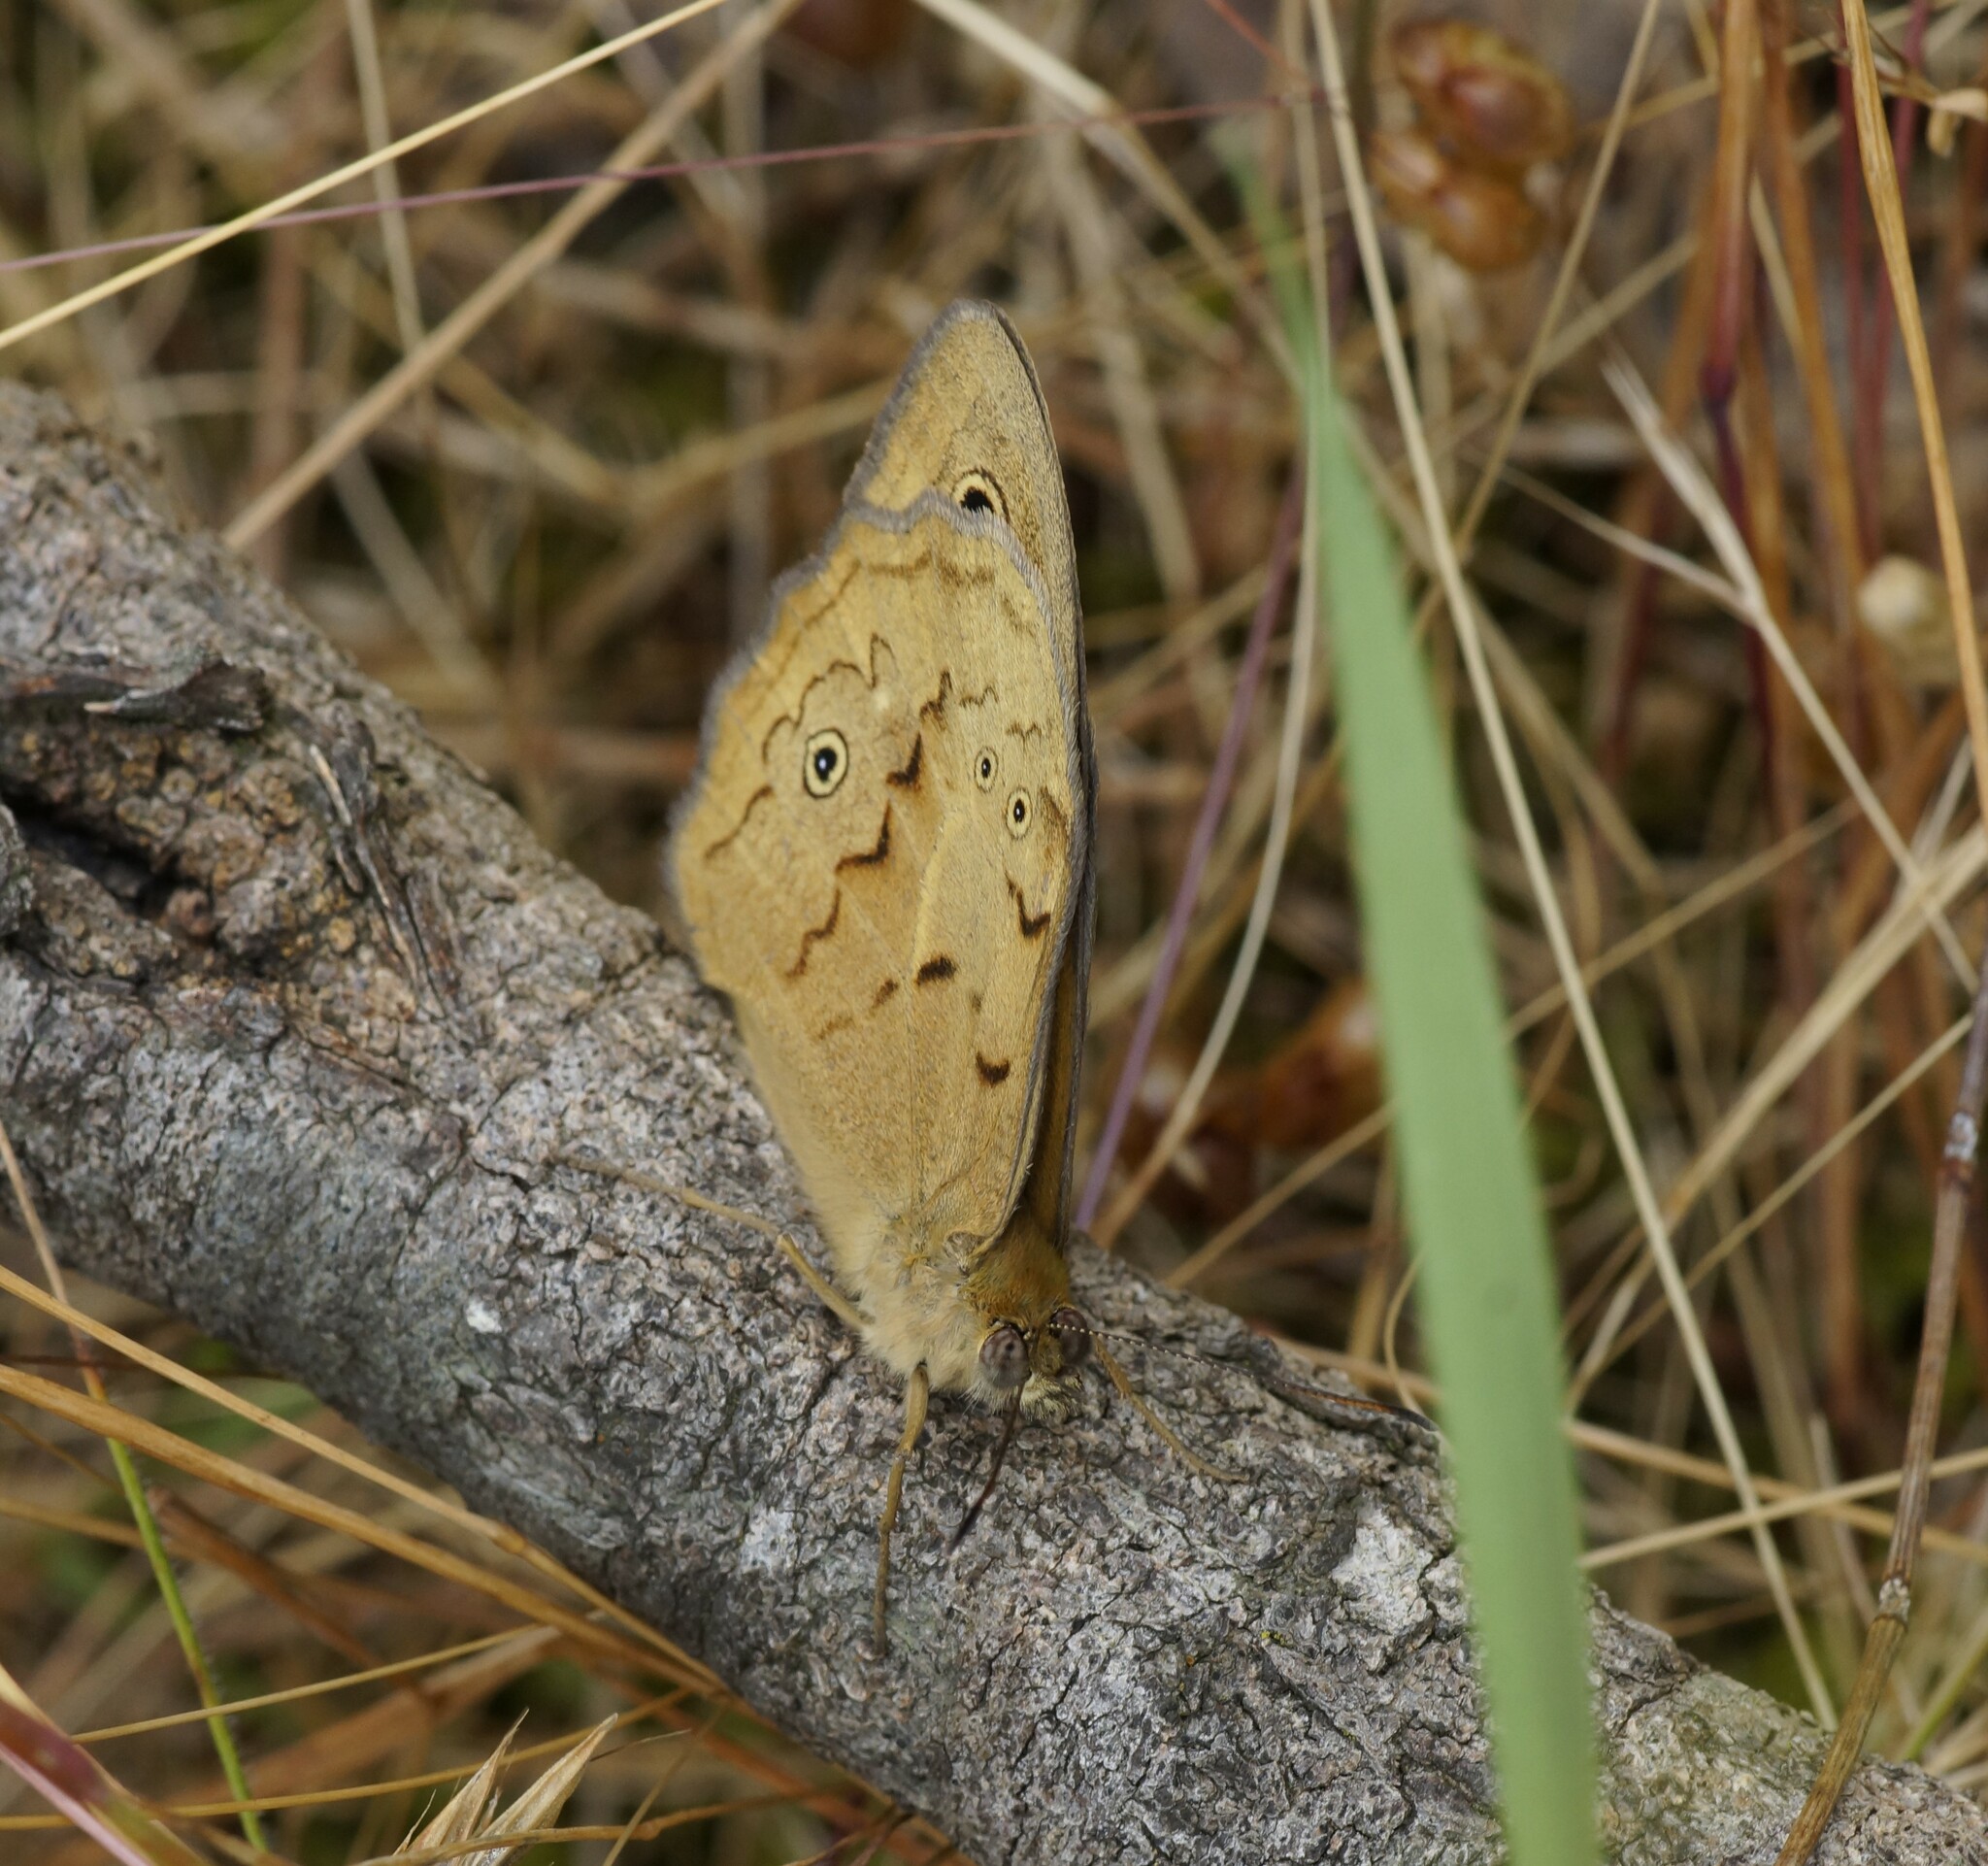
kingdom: Animalia
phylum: Arthropoda
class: Insecta
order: Lepidoptera
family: Nymphalidae
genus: Heteronympha
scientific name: Heteronympha merope
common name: Common brown
